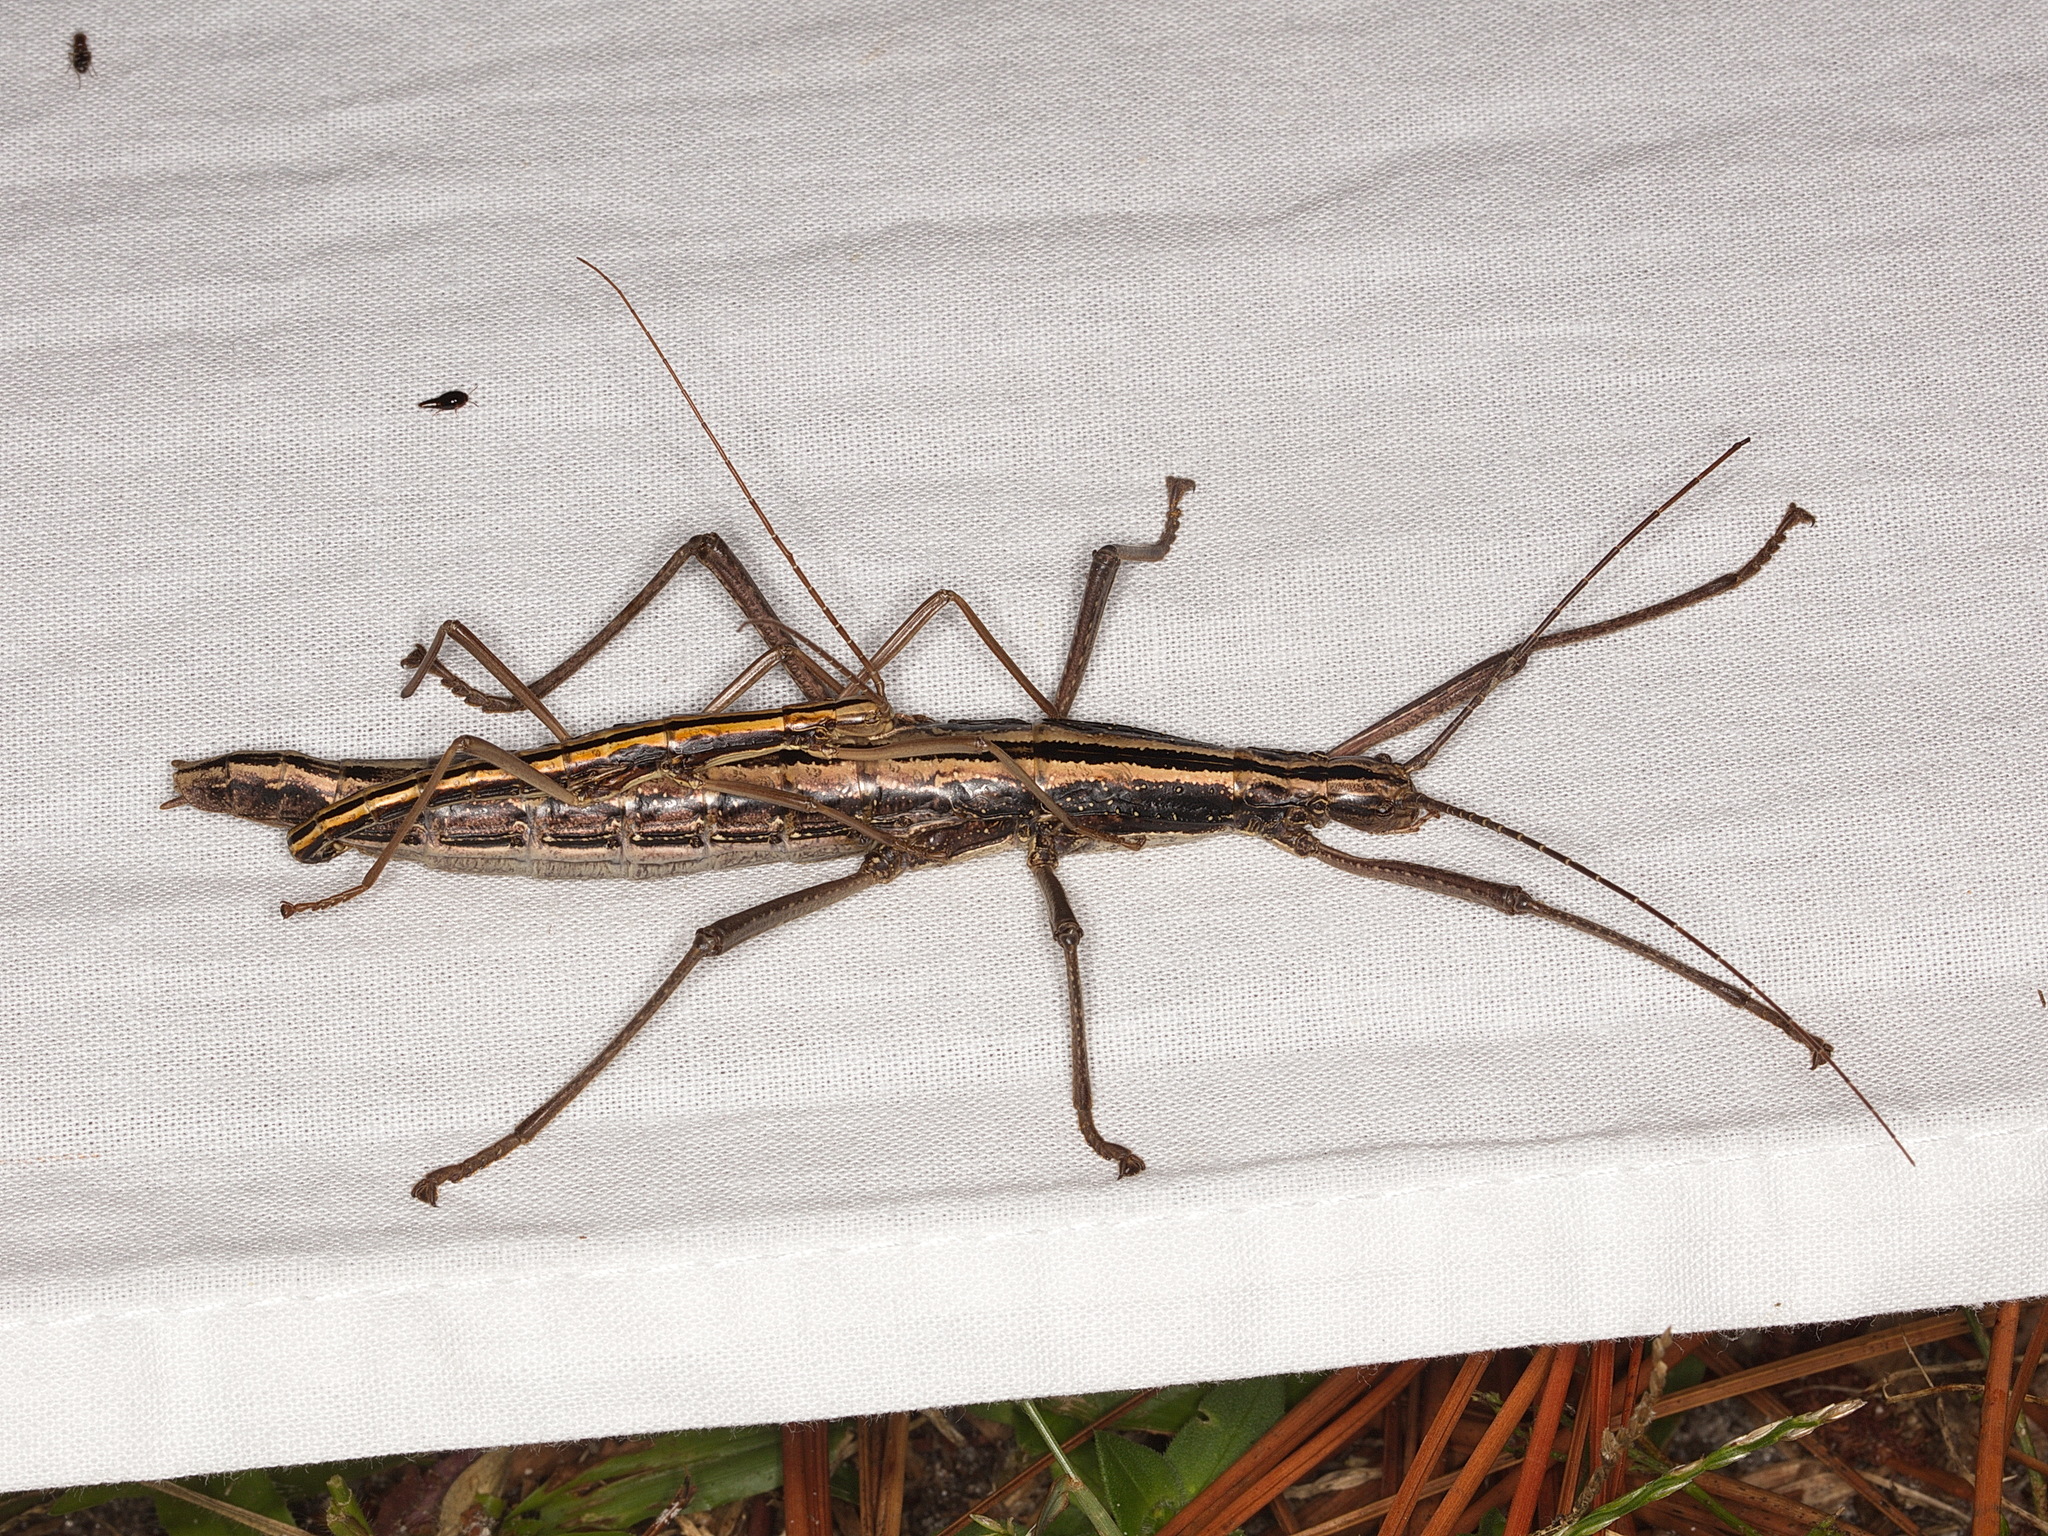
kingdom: Animalia
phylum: Arthropoda
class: Insecta
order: Phasmida
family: Pseudophasmatidae
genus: Anisomorpha
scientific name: Anisomorpha buprestoides
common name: Florida stick insect
